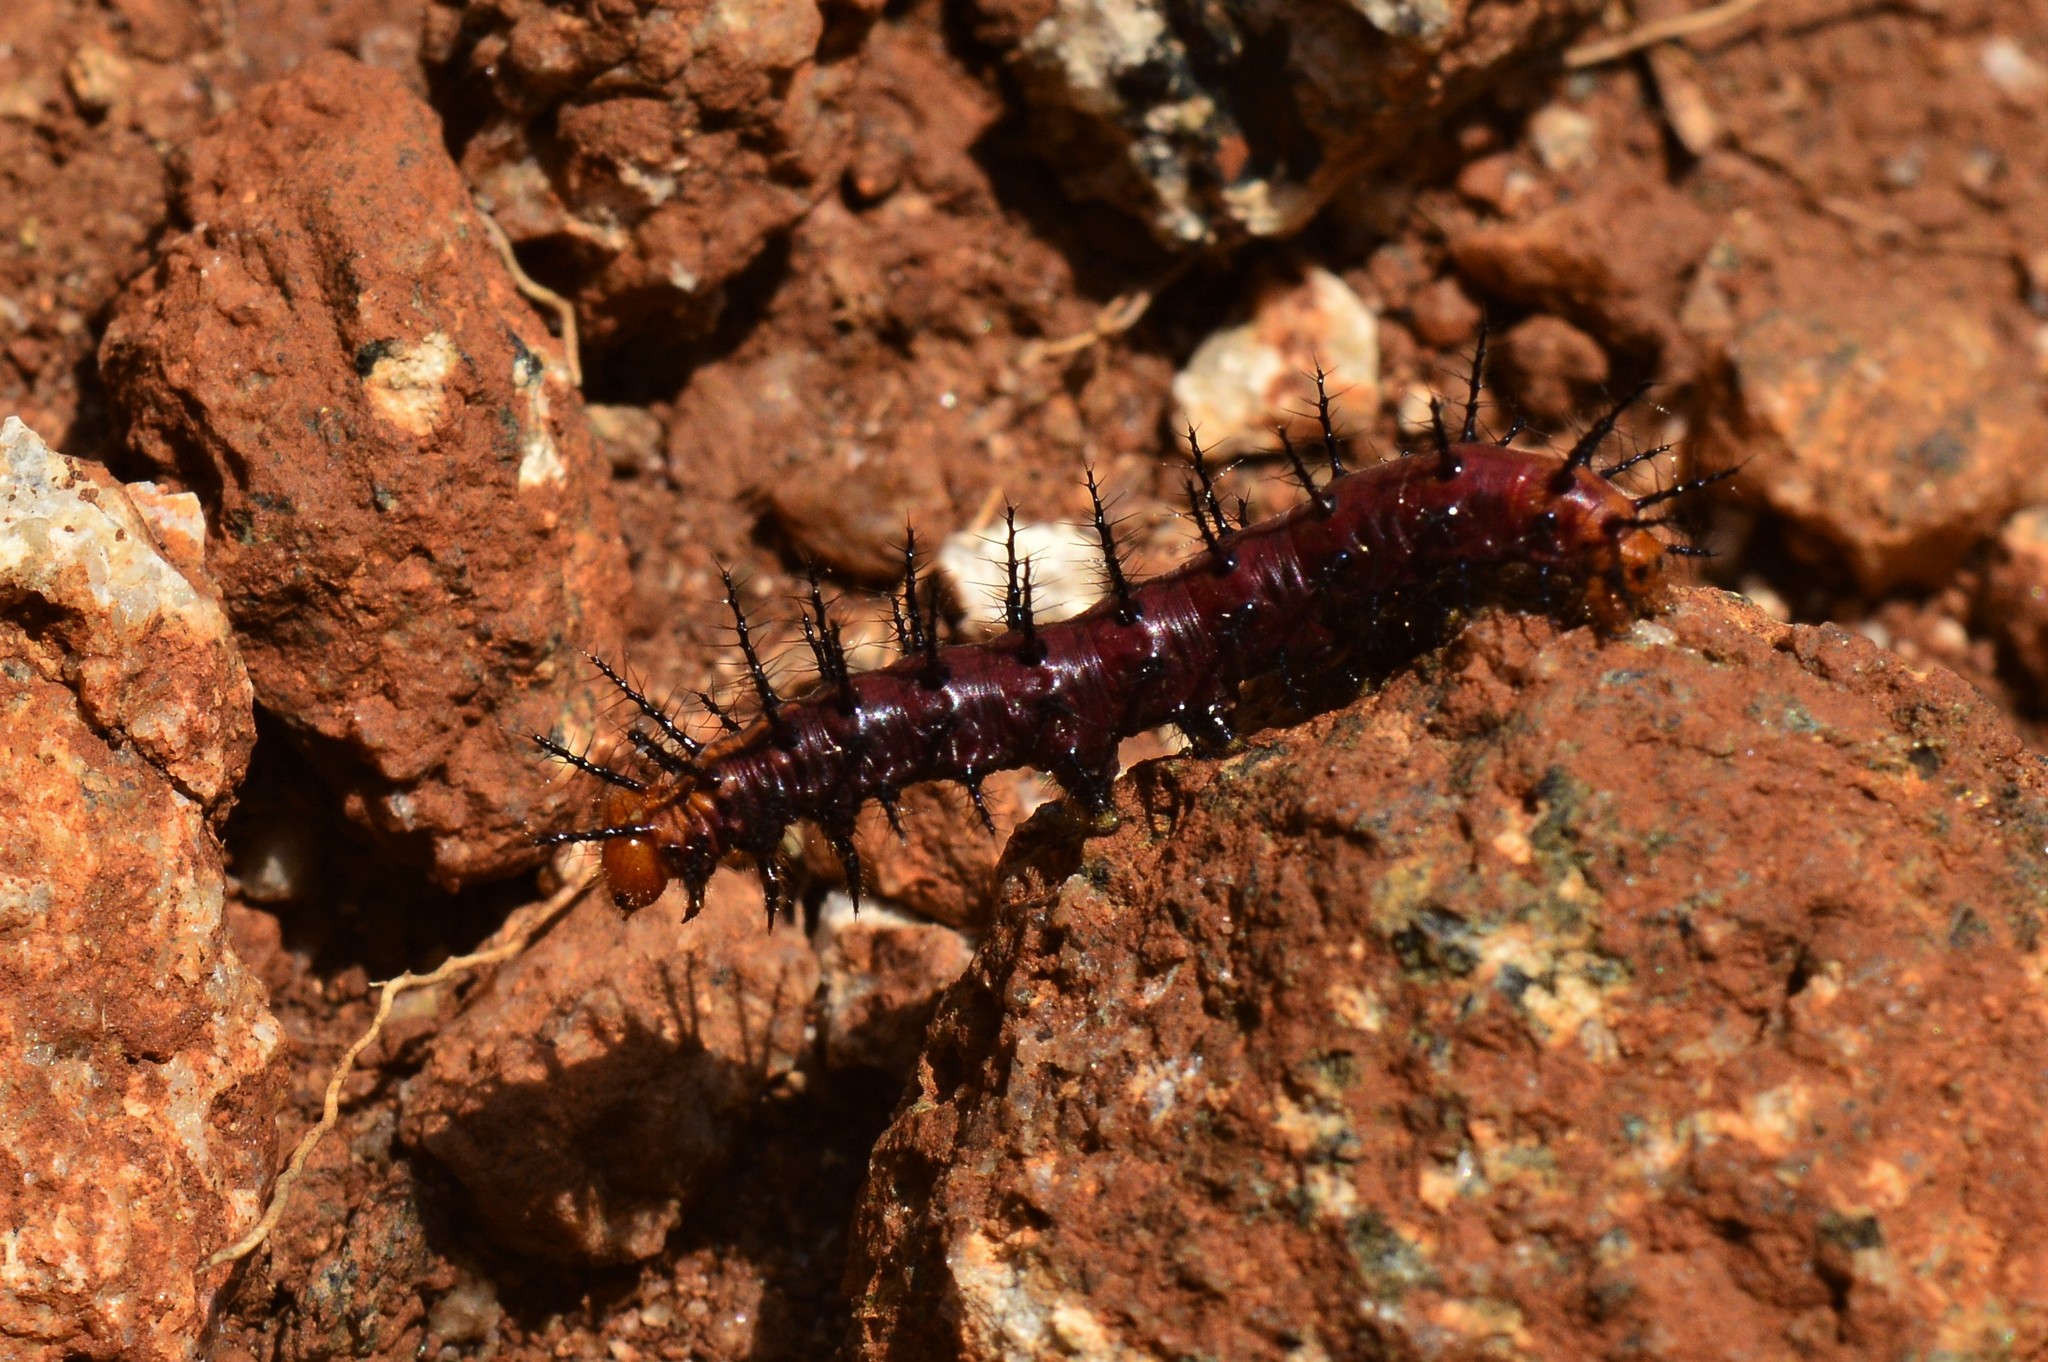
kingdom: Animalia
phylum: Arthropoda
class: Insecta
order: Lepidoptera
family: Nymphalidae
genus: Acraea
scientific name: Acraea terpsicore
